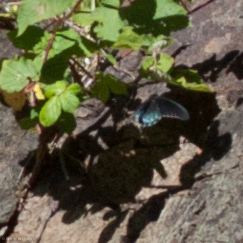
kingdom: Animalia
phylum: Arthropoda
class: Insecta
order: Lepidoptera
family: Papilionidae
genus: Battus
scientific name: Battus philenor
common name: Pipevine swallowtail
